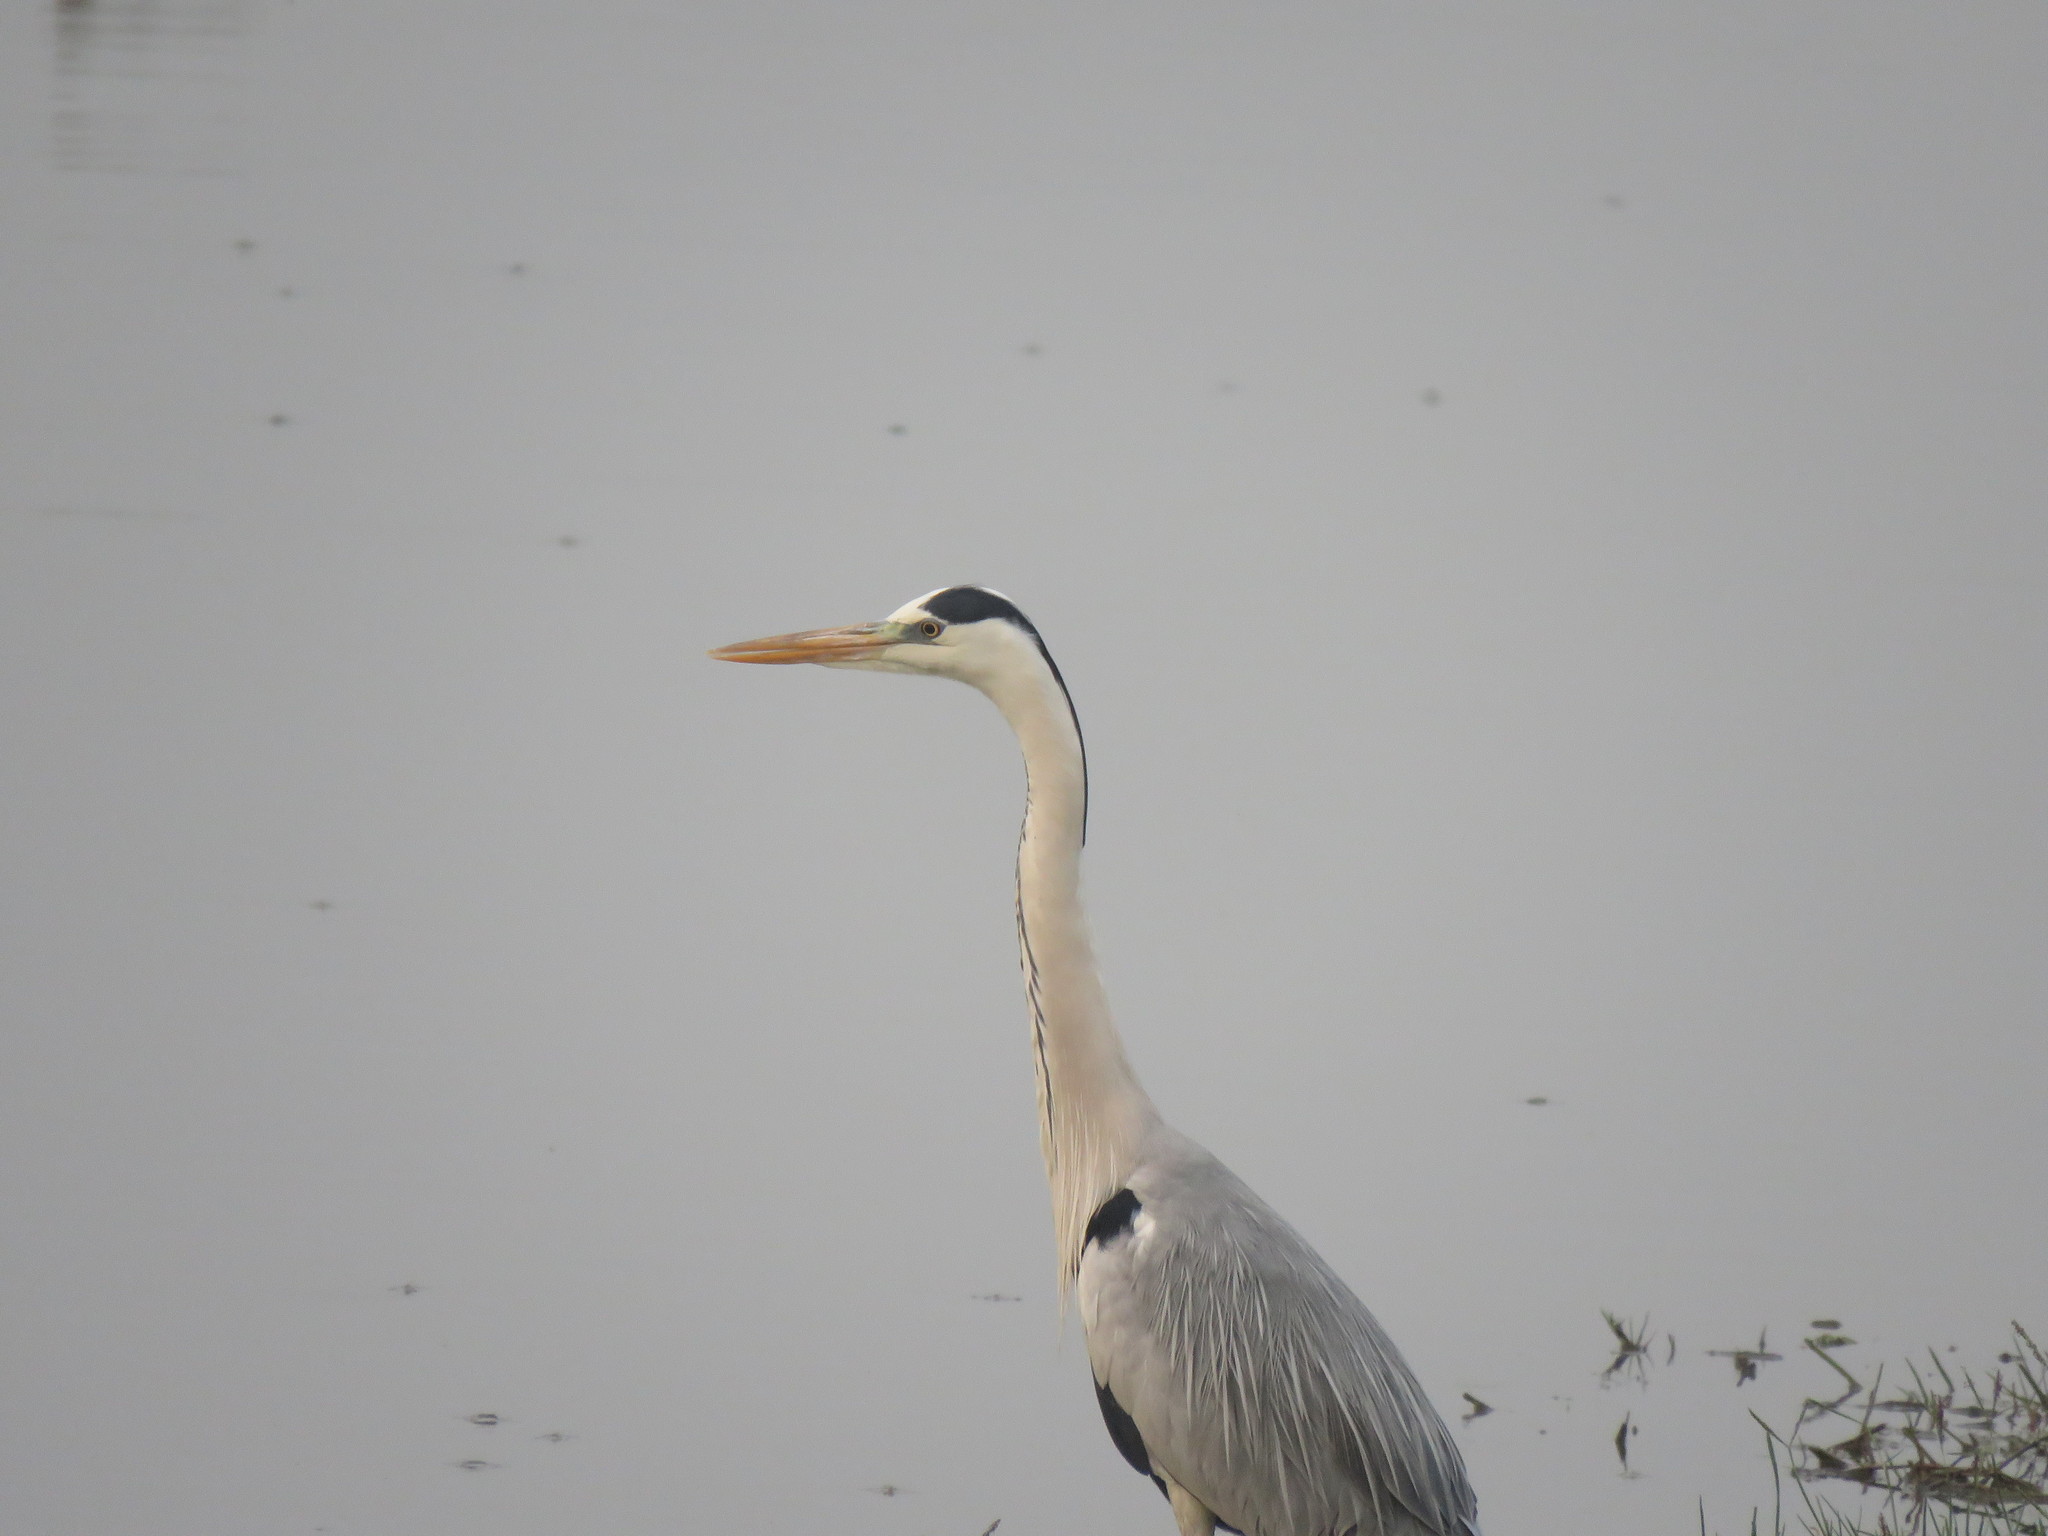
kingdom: Animalia
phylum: Chordata
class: Aves
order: Pelecaniformes
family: Ardeidae
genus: Ardea
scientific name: Ardea cinerea
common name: Grey heron
